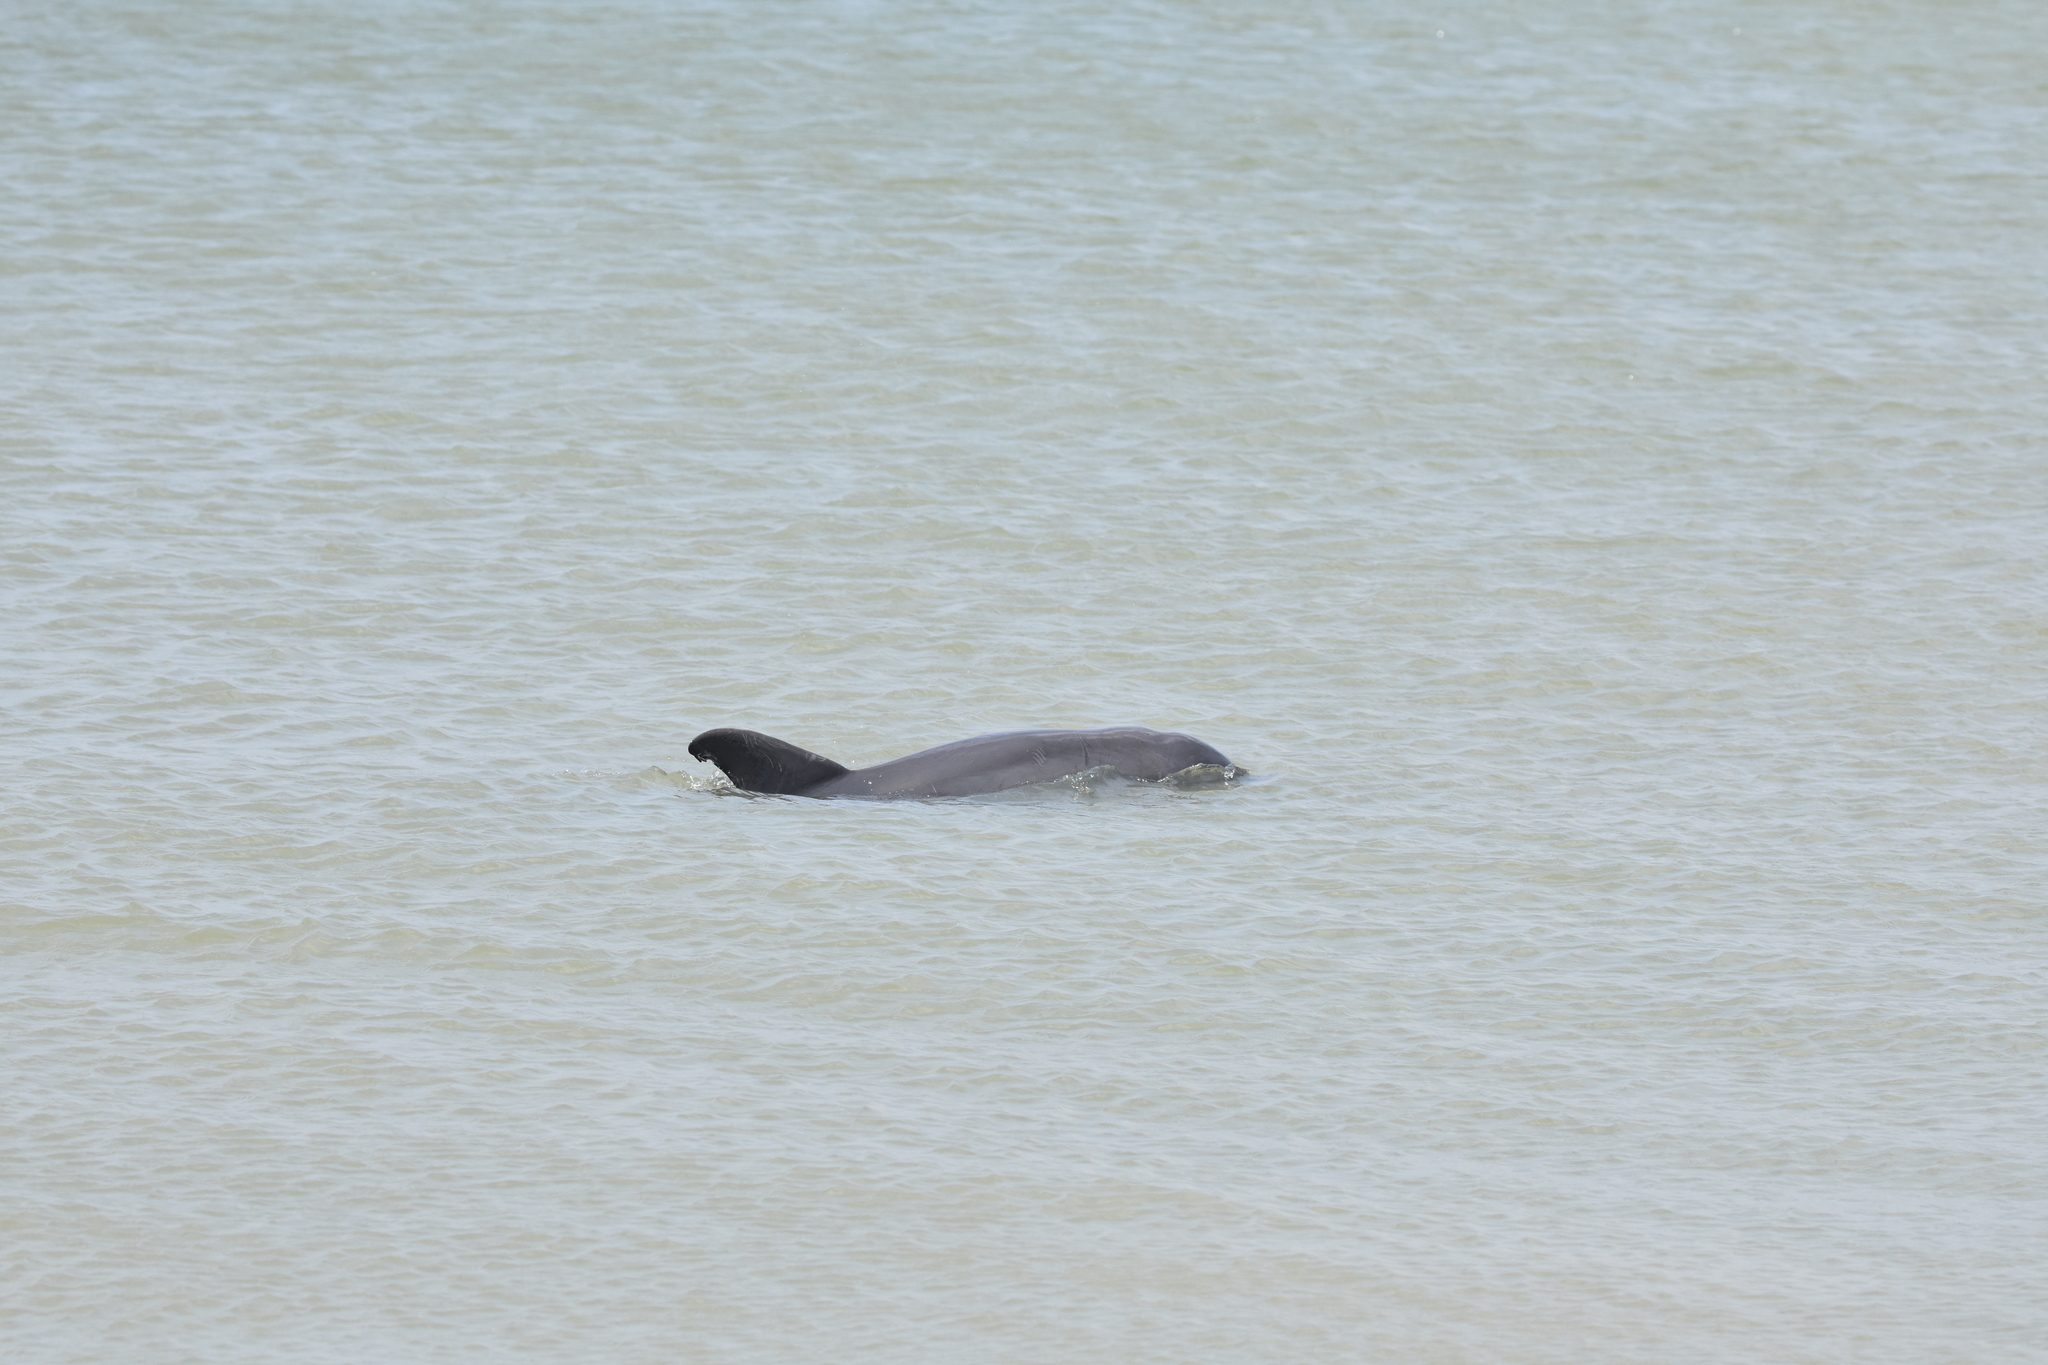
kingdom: Animalia
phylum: Chordata
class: Mammalia
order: Cetacea
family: Delphinidae
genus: Tursiops
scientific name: Tursiops truncatus
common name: Bottlenose dolphin
